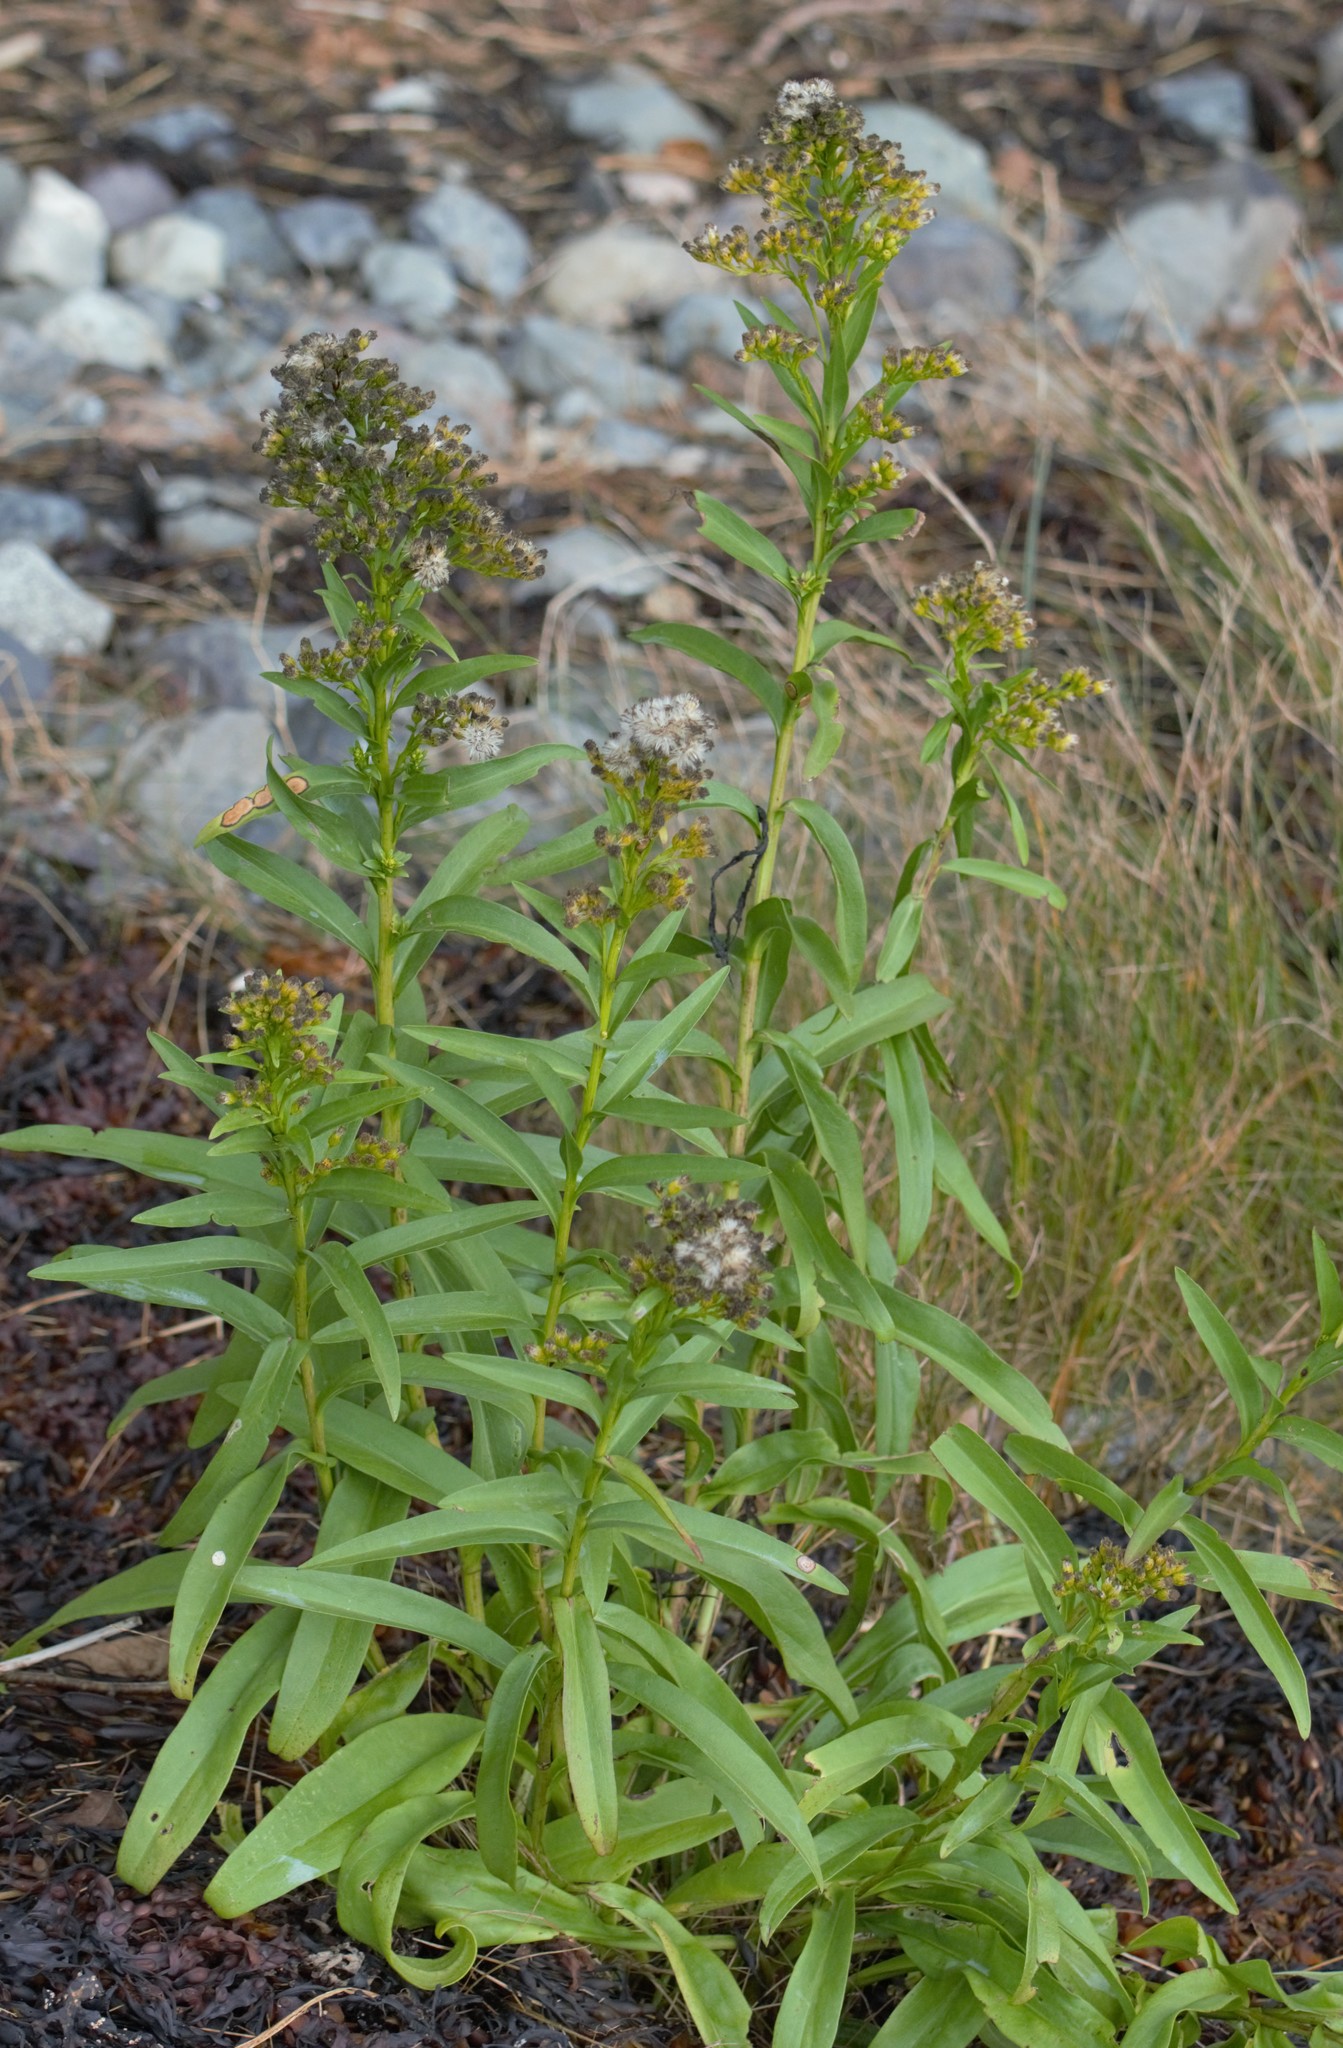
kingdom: Plantae
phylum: Tracheophyta
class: Magnoliopsida
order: Asterales
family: Asteraceae
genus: Solidago
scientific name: Solidago sempervirens
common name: Salt-marsh goldenrod
